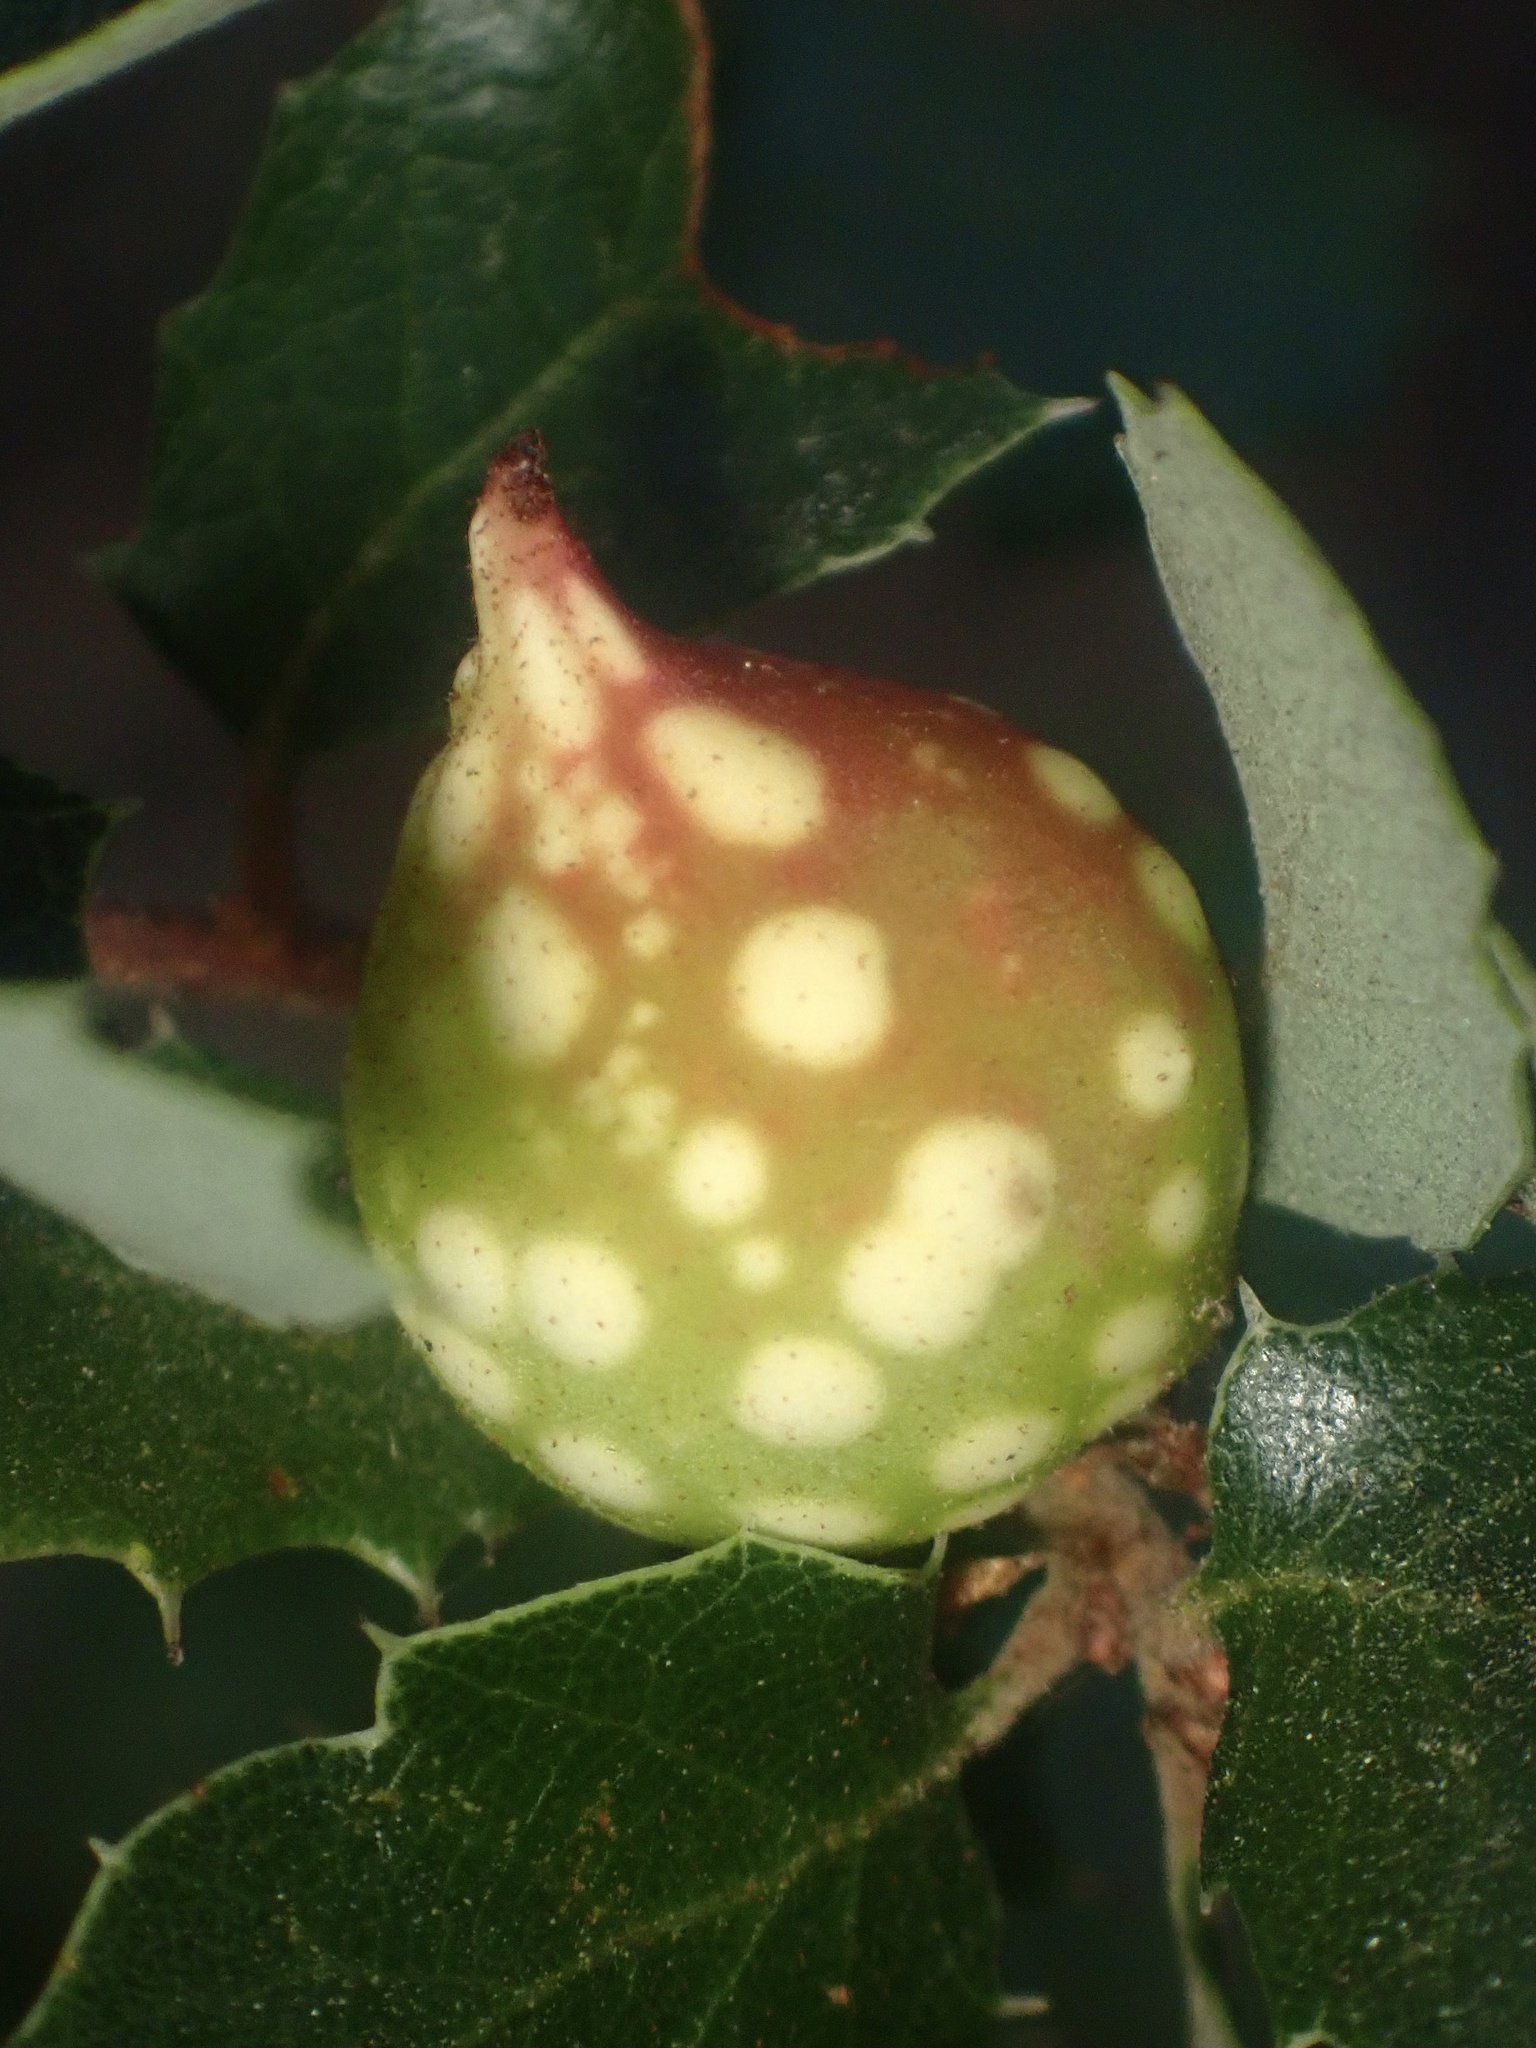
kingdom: Animalia
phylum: Arthropoda
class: Insecta
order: Hymenoptera
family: Cynipidae
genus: Burnettweldia
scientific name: Burnettweldia
